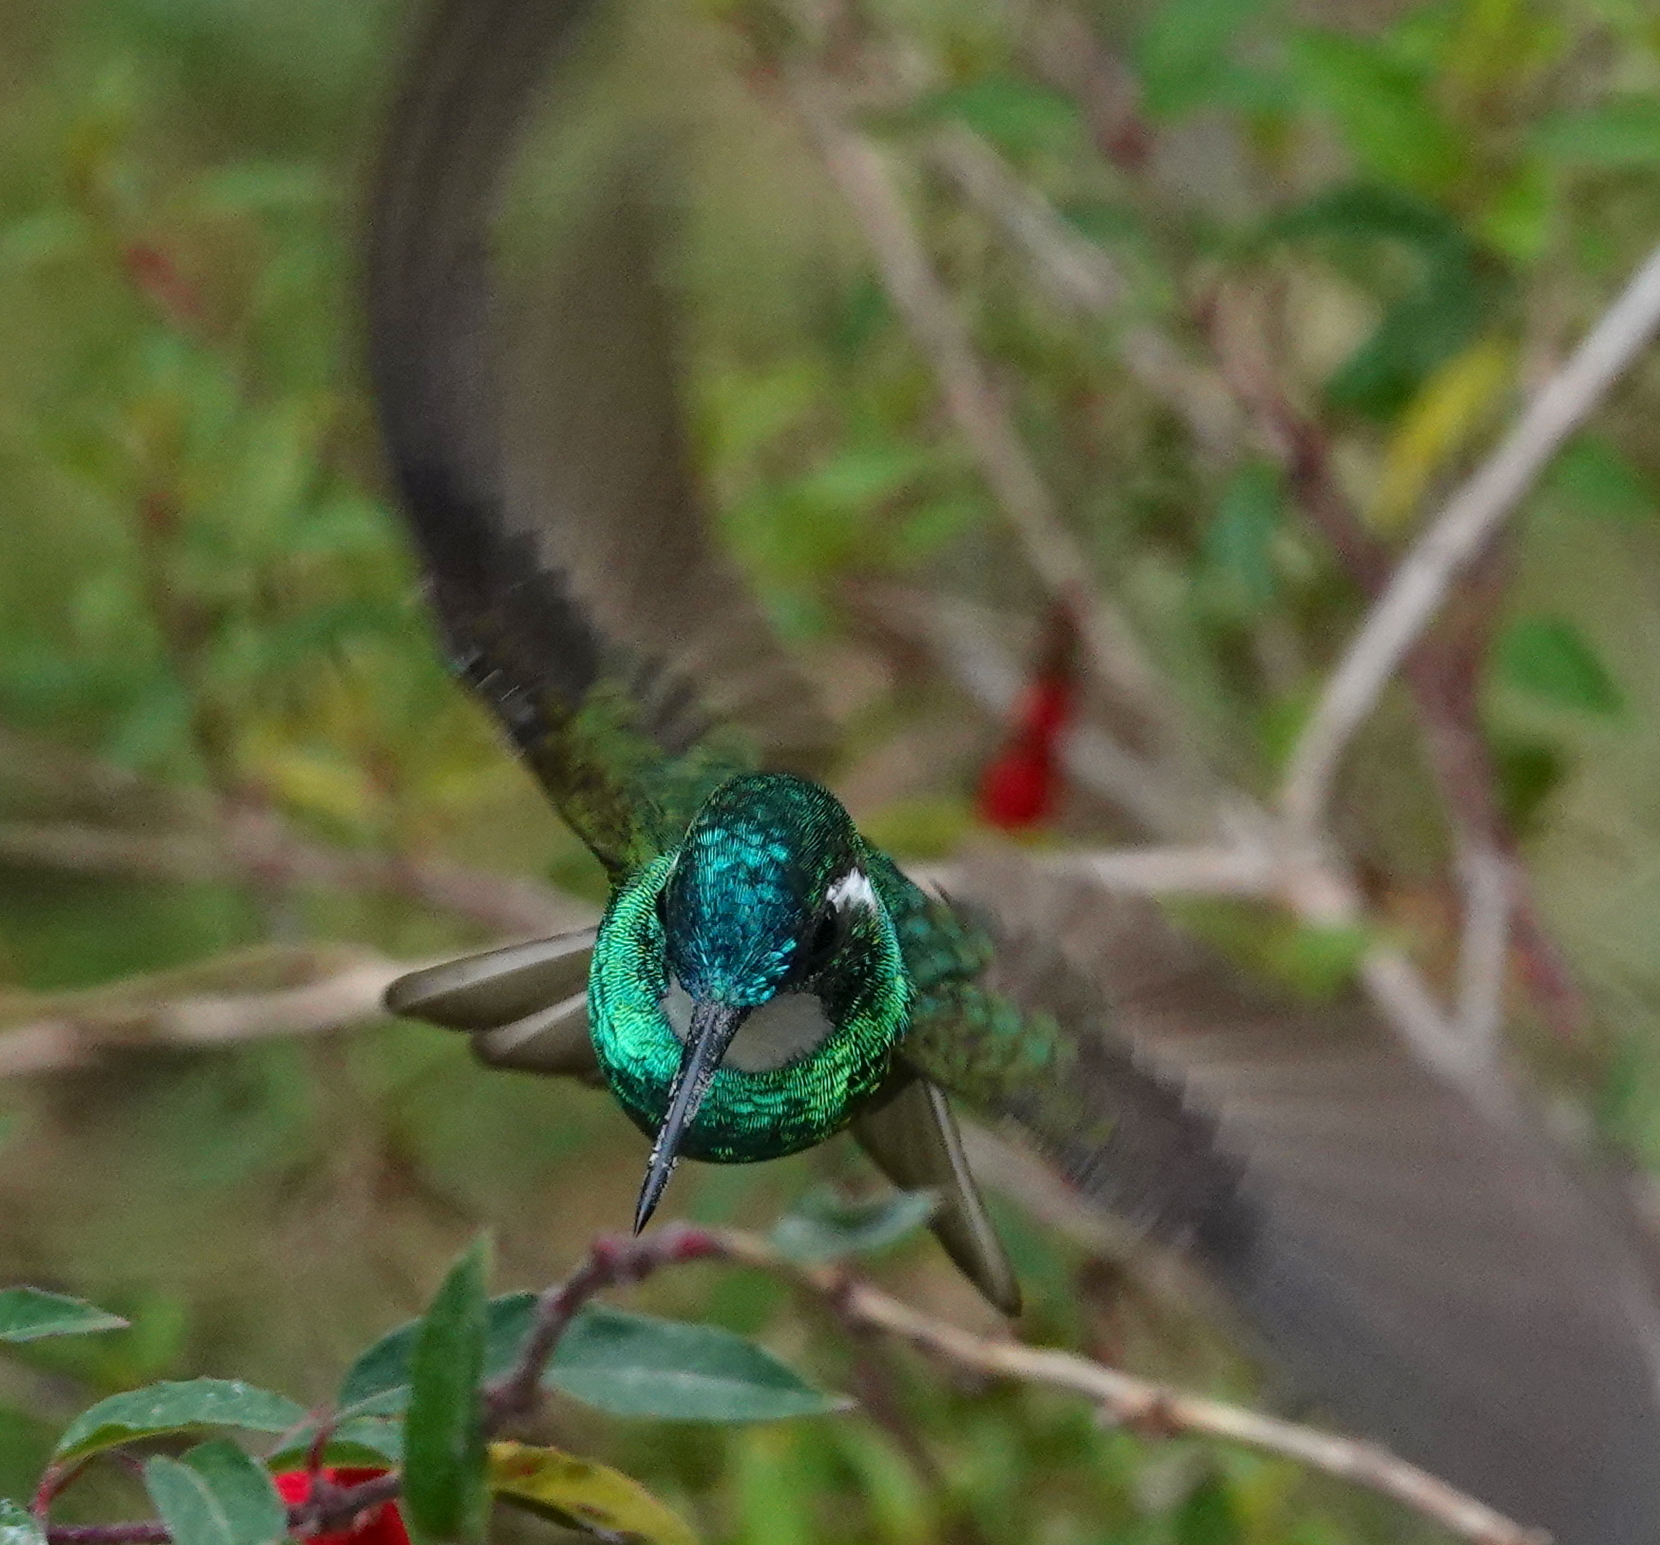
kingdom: Animalia
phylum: Chordata
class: Aves
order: Apodiformes
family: Trochilidae
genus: Lampornis
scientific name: Lampornis castaneoventris
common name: White-throated mountain-gem
